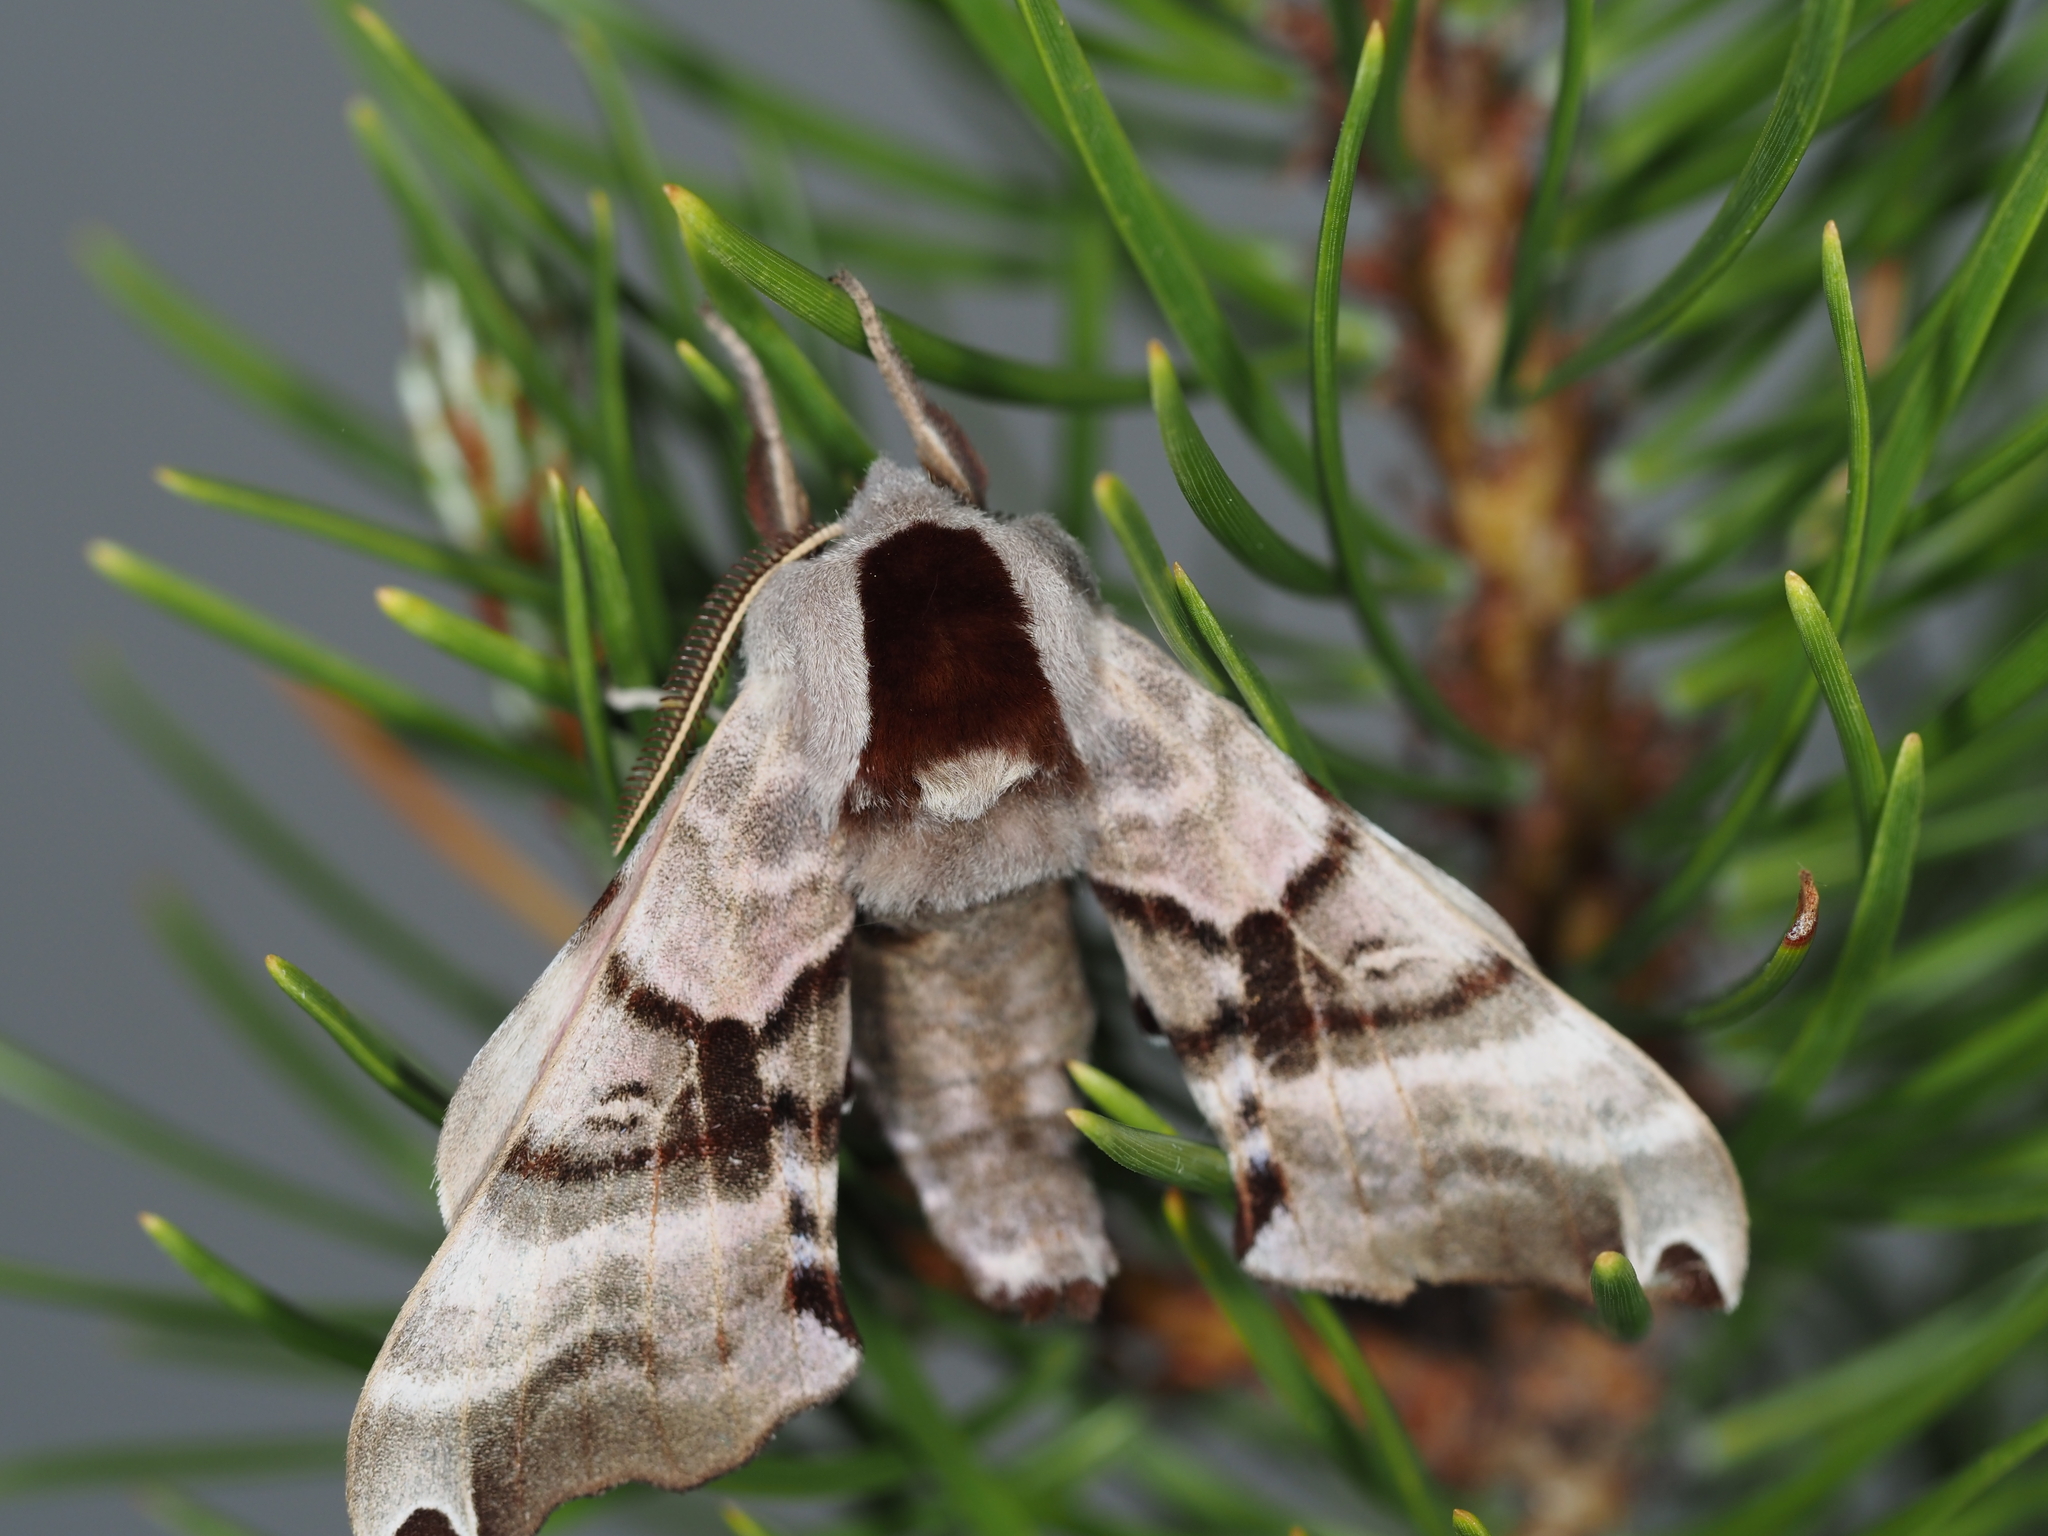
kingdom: Animalia
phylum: Arthropoda
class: Insecta
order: Lepidoptera
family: Sphingidae
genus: Smerinthus
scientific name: Smerinthus jamaicensis
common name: Twin spotted sphinx
